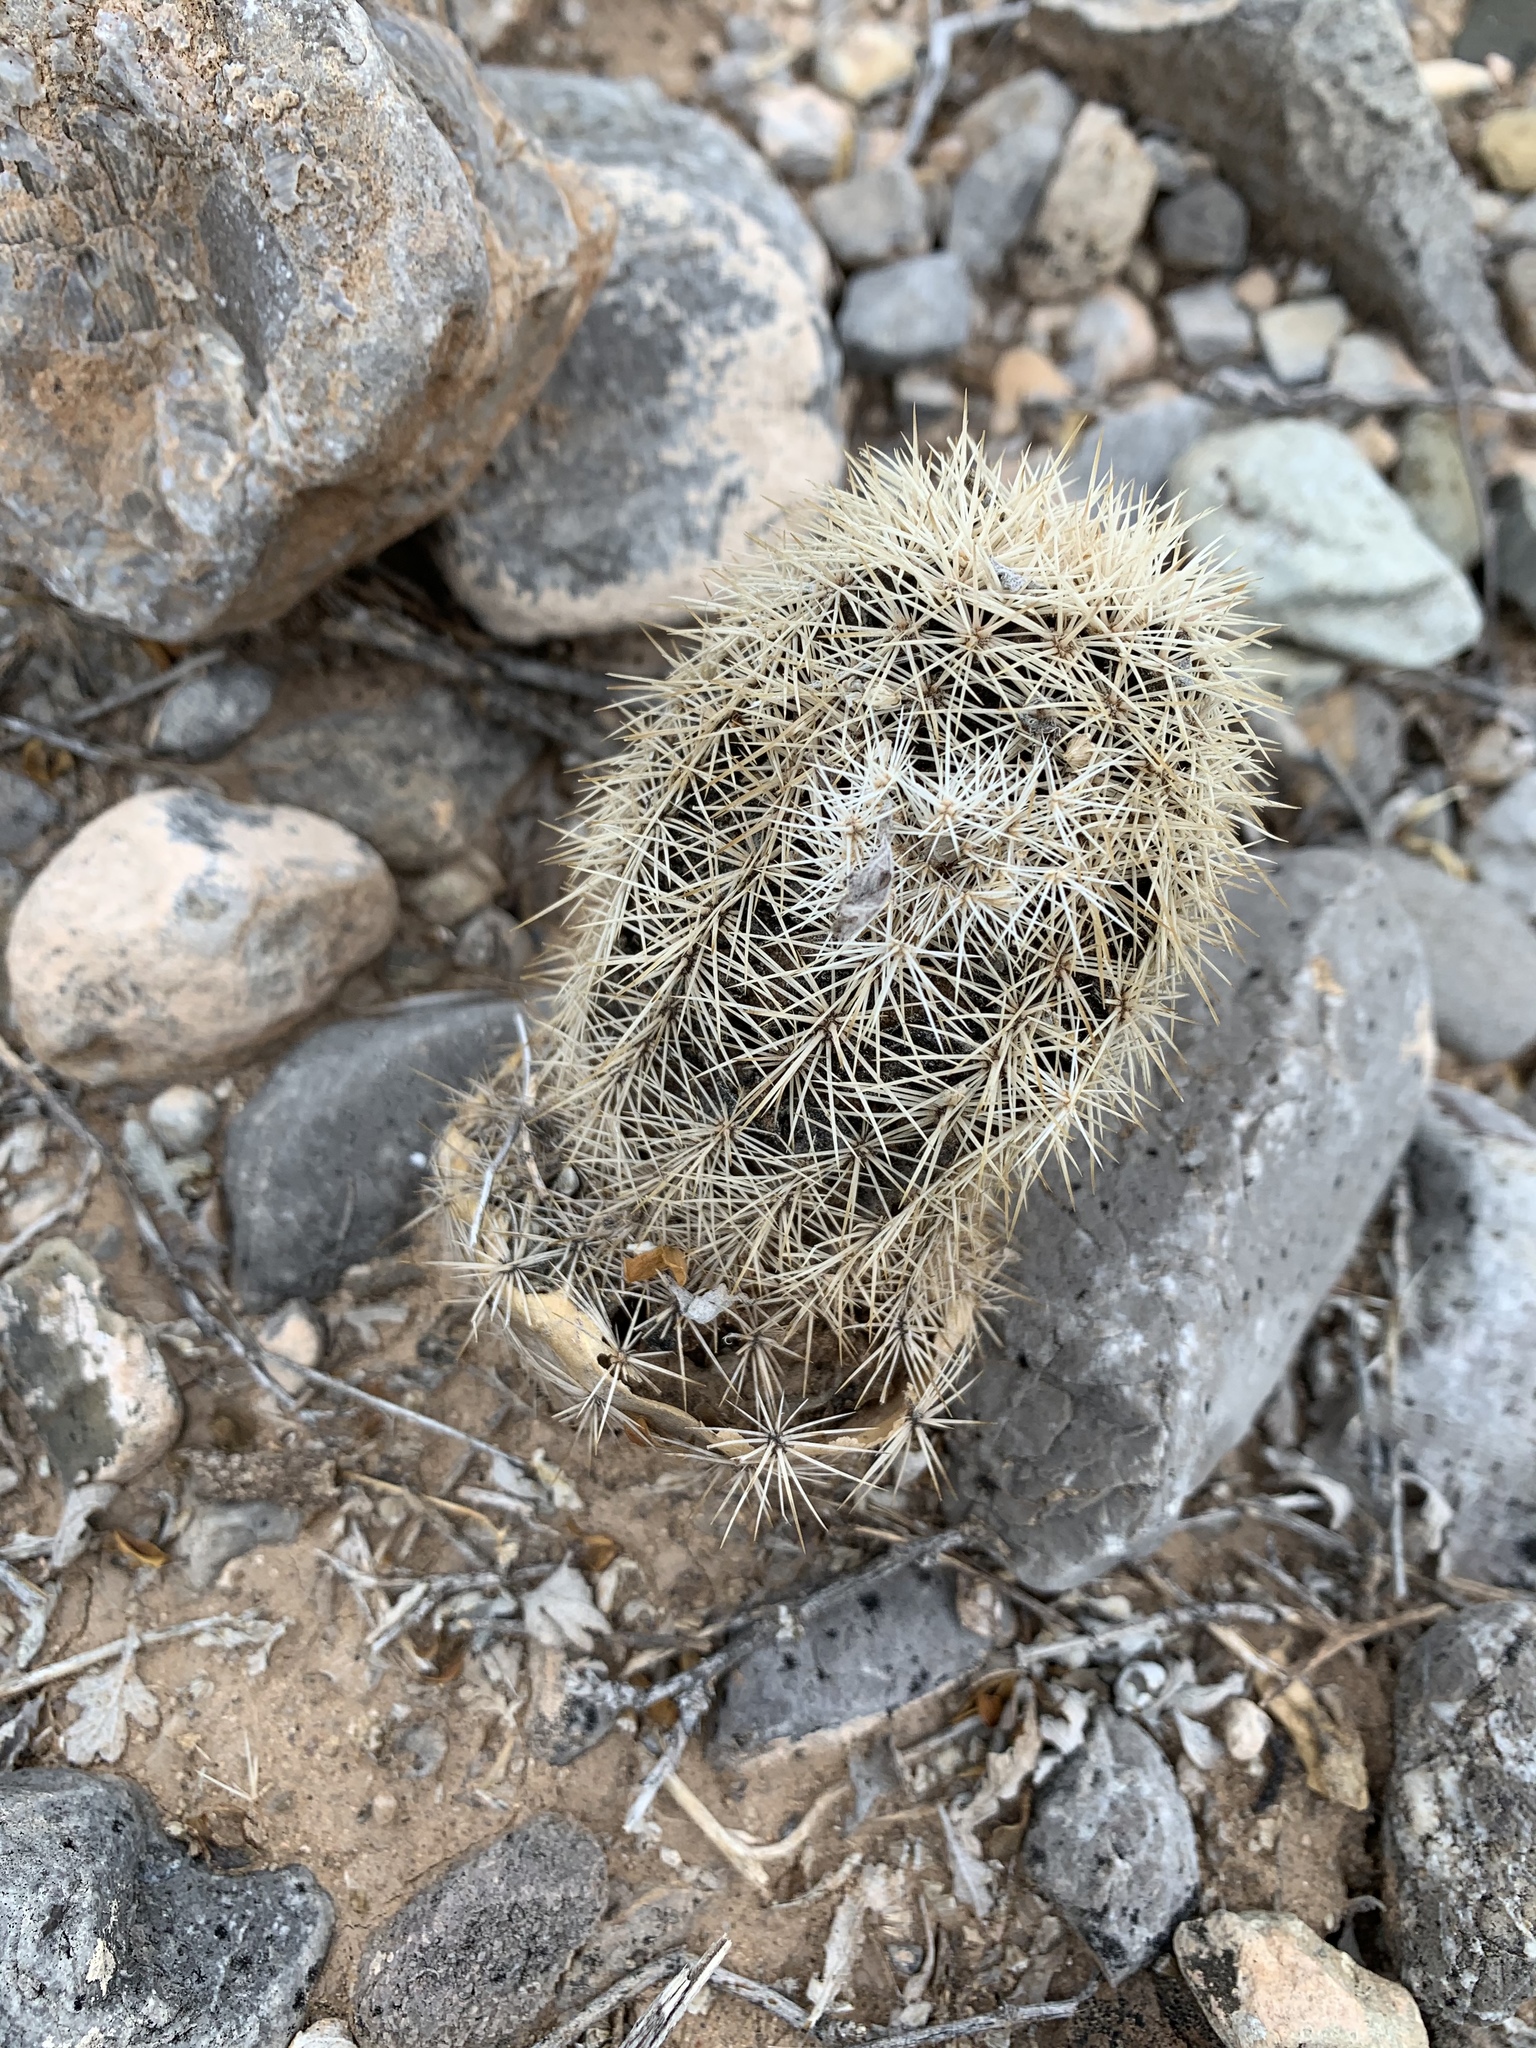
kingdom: Plantae
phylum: Tracheophyta
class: Magnoliopsida
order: Caryophyllales
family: Cactaceae
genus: Echinocereus
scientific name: Echinocereus dasyacanthus
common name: Spiny hedgehog cactus
